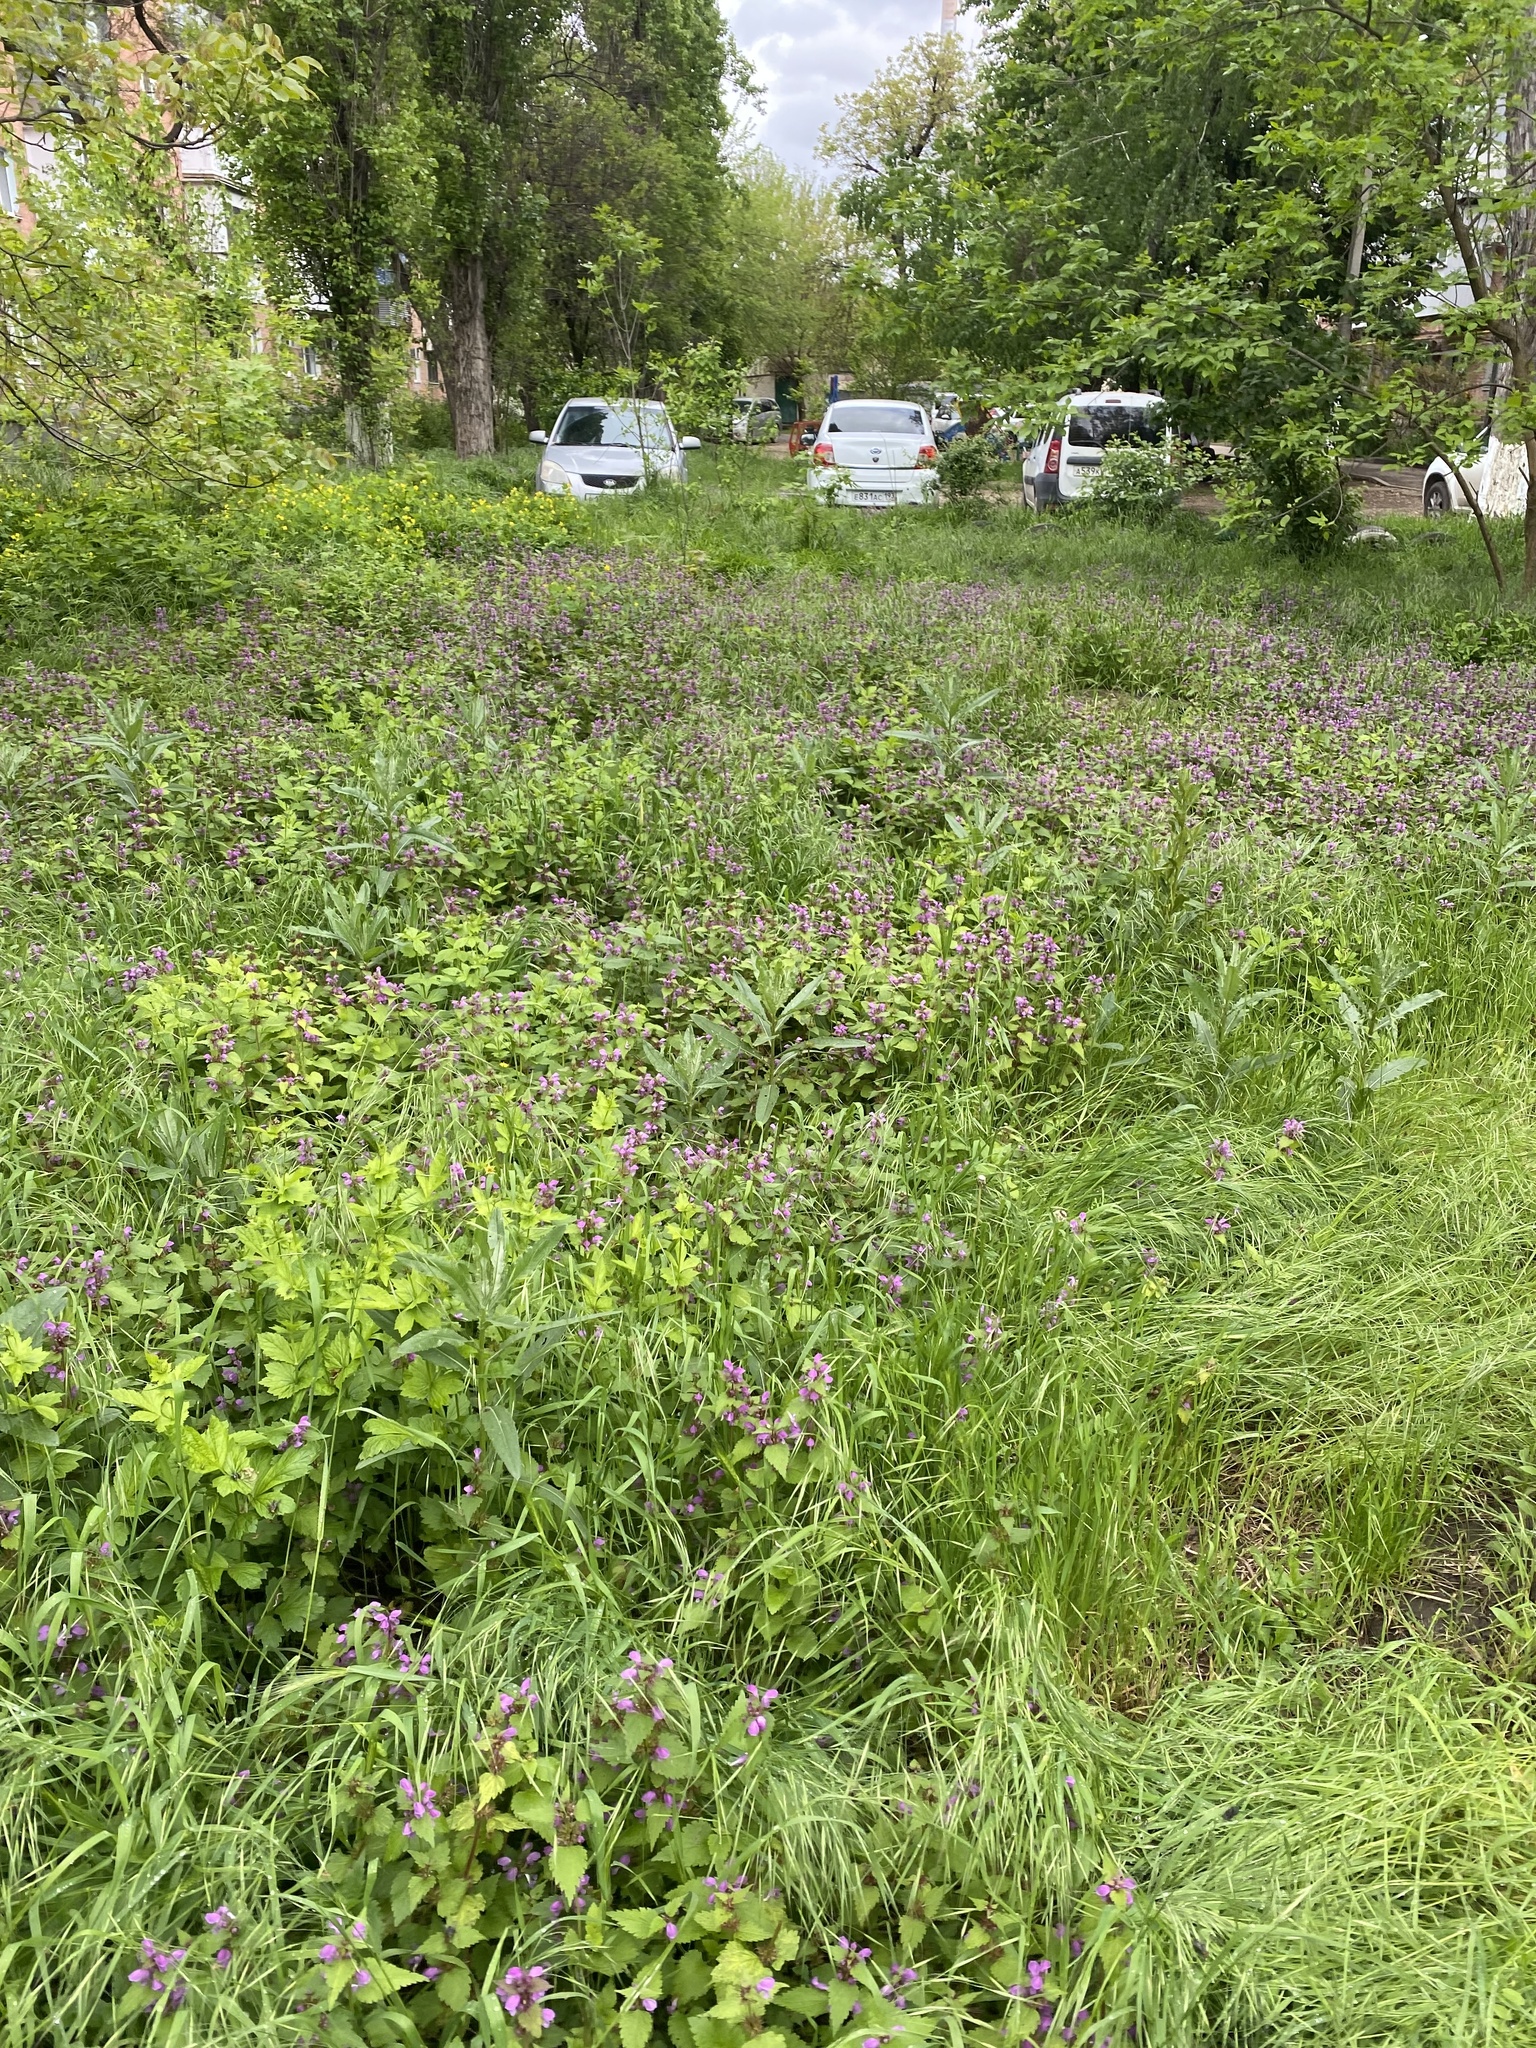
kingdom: Plantae
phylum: Tracheophyta
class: Magnoliopsida
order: Lamiales
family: Lamiaceae
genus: Lamium
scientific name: Lamium maculatum
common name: Spotted dead-nettle
